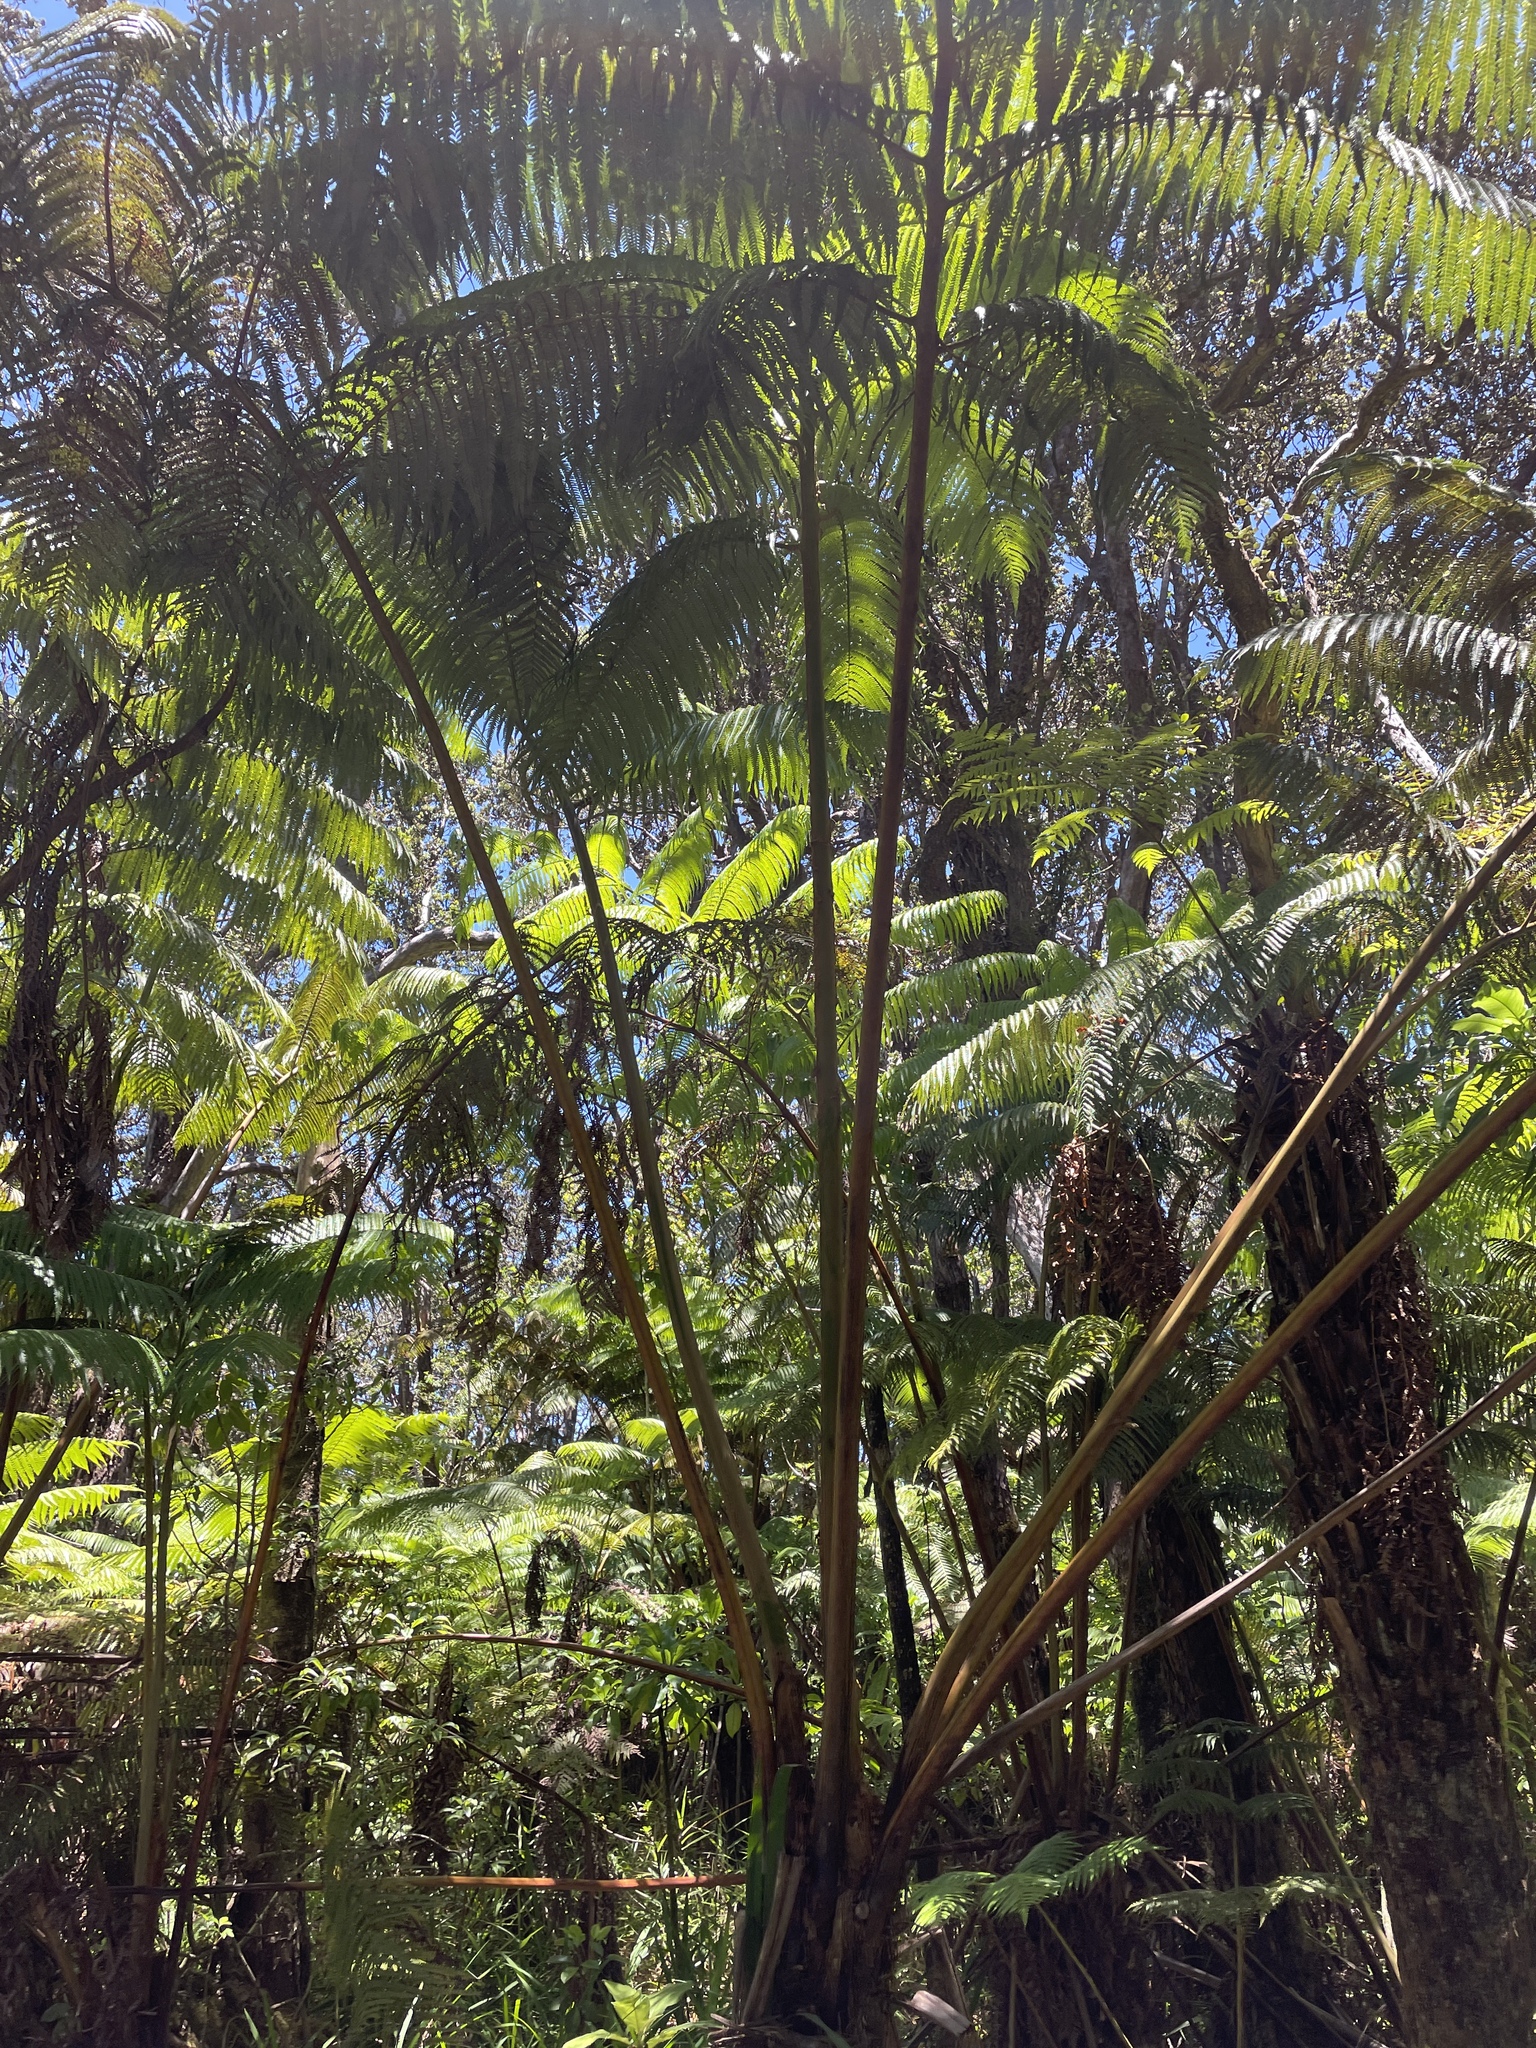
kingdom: Plantae
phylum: Tracheophyta
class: Polypodiopsida
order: Cyatheales
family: Cibotiaceae
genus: Cibotium
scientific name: Cibotium glaucum
